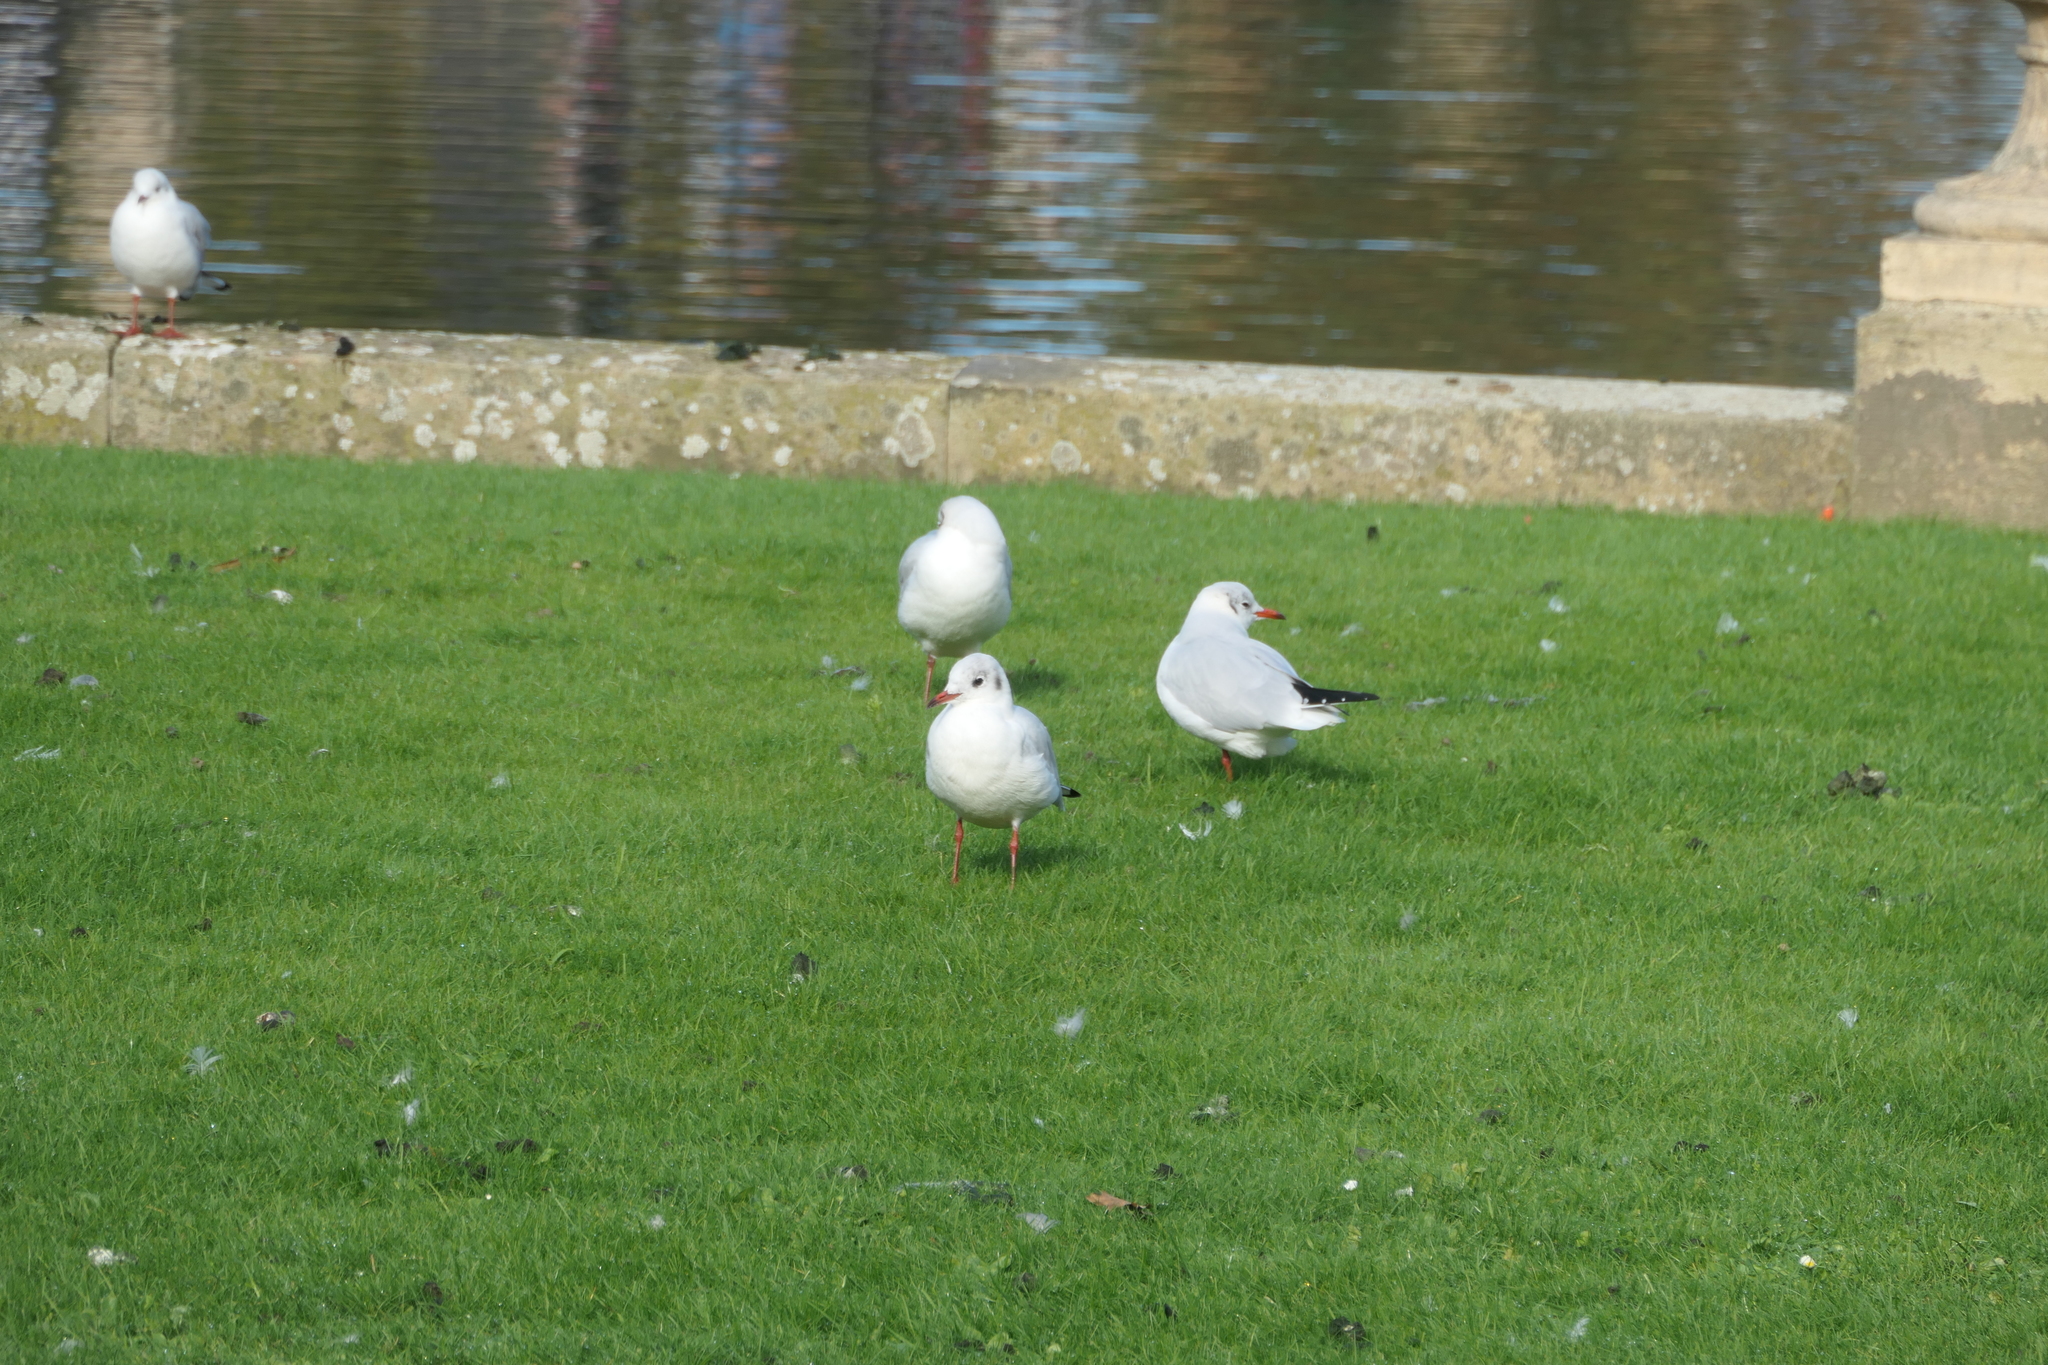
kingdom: Animalia
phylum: Chordata
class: Aves
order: Charadriiformes
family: Laridae
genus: Chroicocephalus
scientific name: Chroicocephalus ridibundus
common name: Black-headed gull
